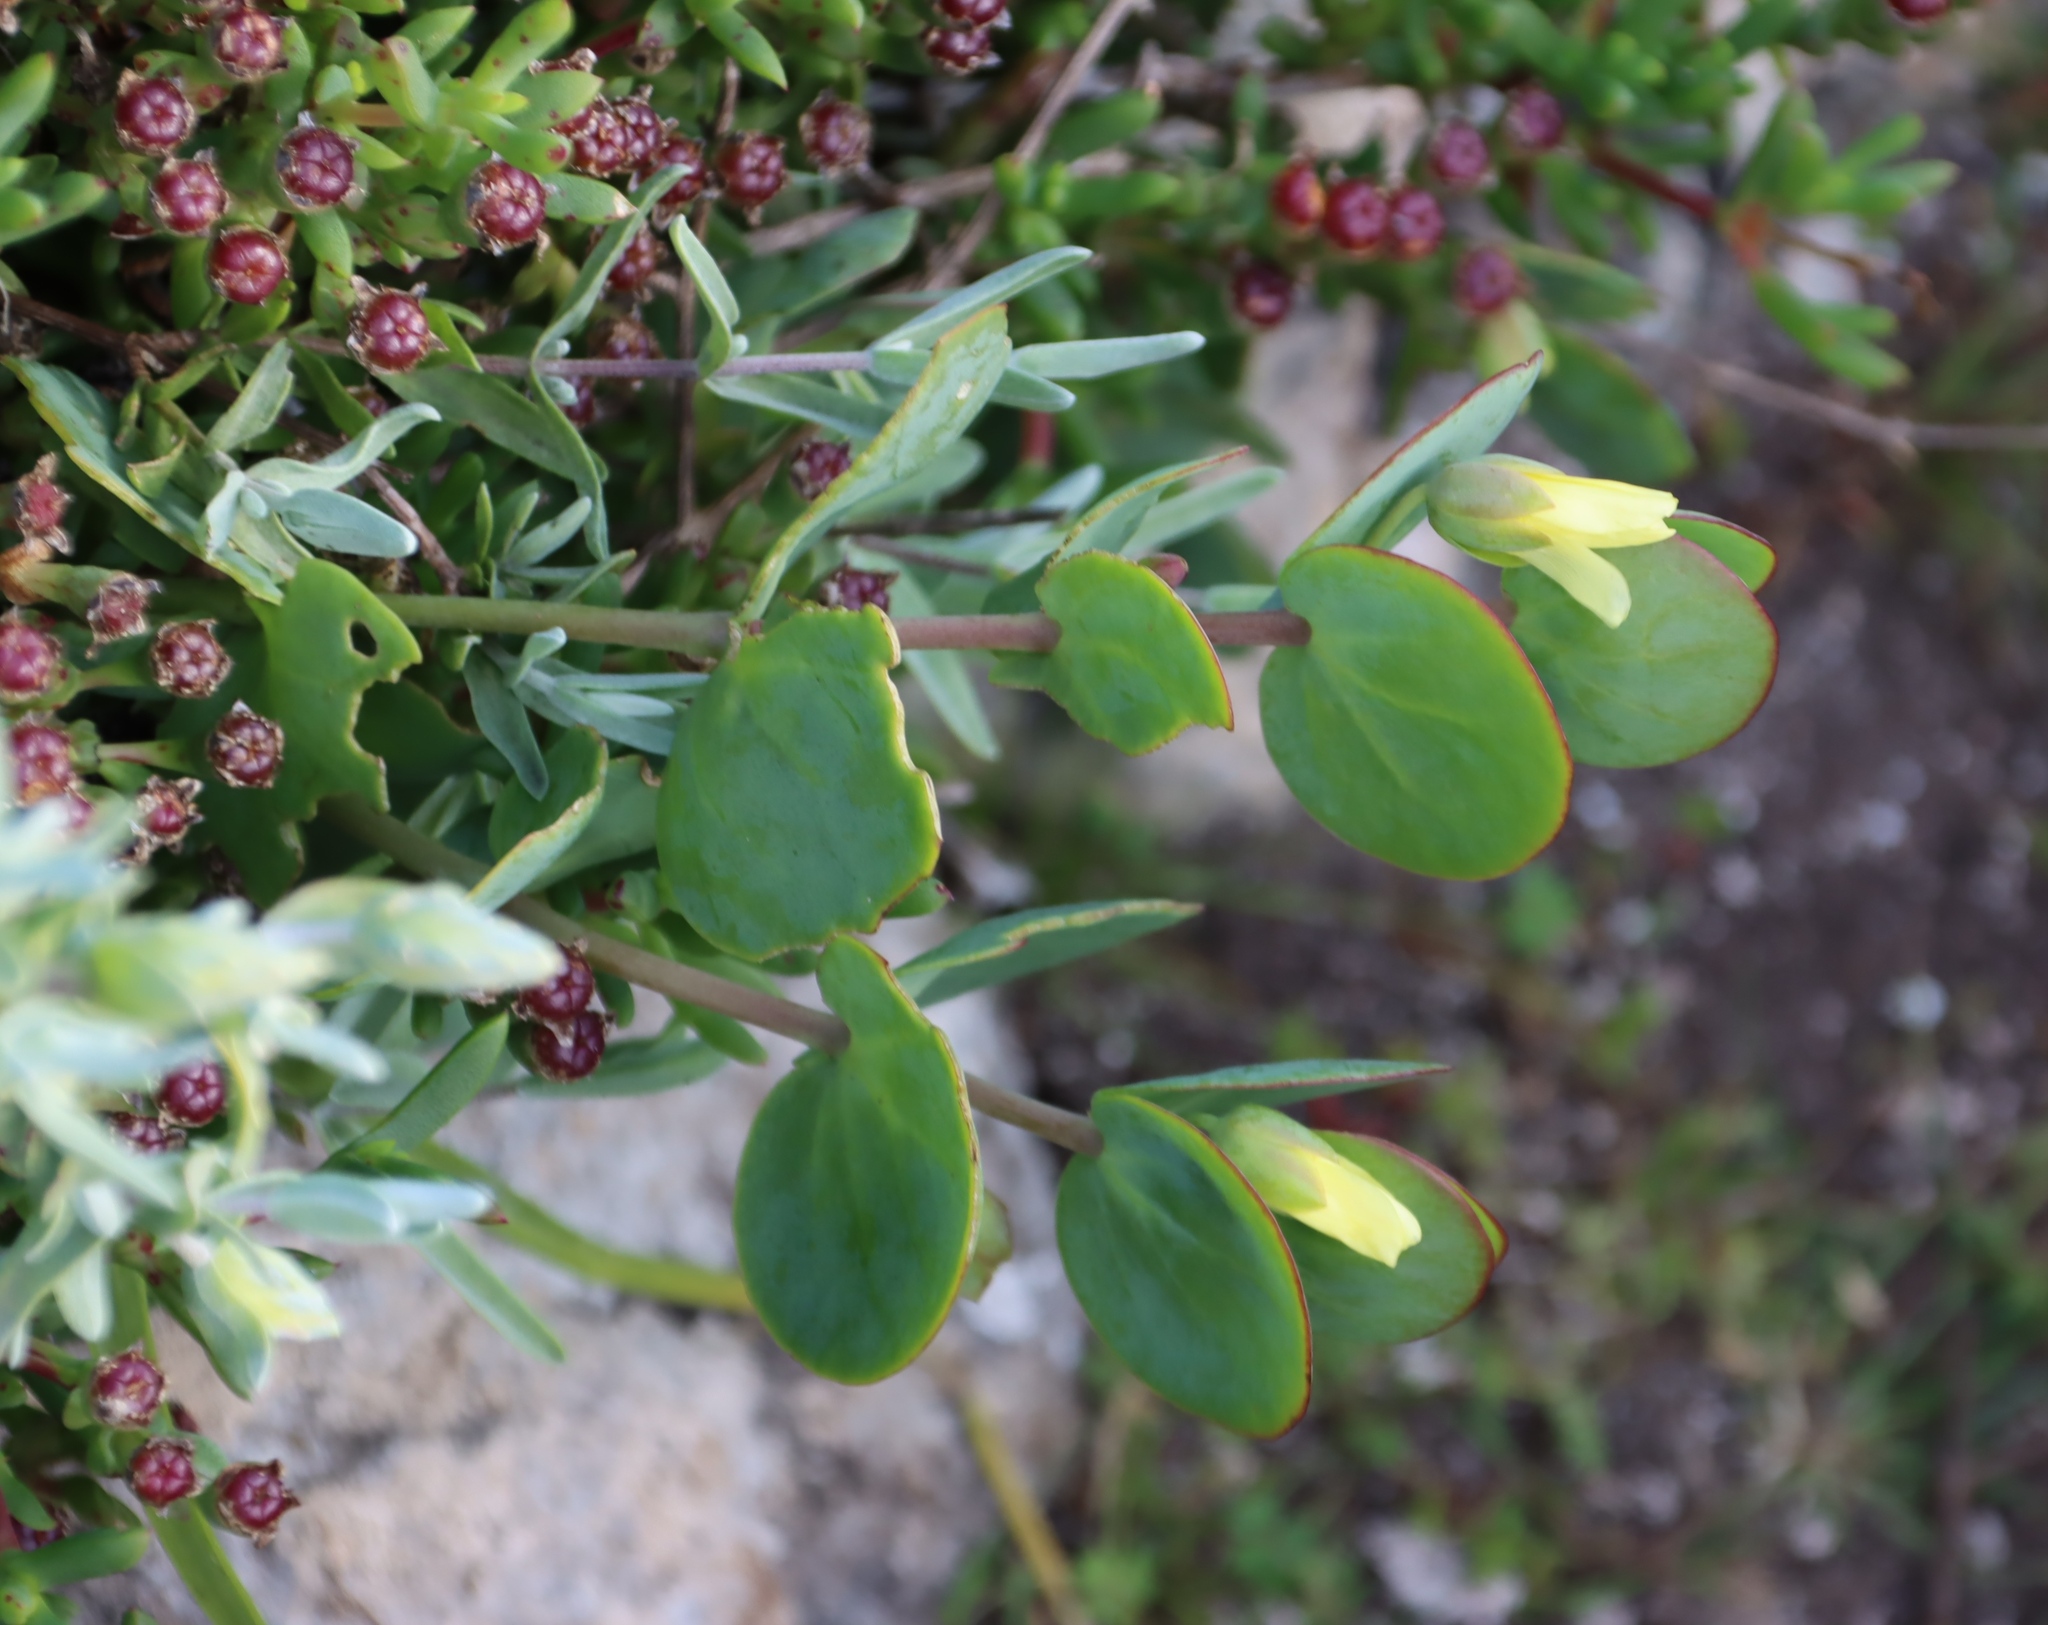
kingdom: Plantae
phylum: Tracheophyta
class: Magnoliopsida
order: Zygophyllales
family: Zygophyllaceae
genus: Roepera
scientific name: Roepera cordifolia
